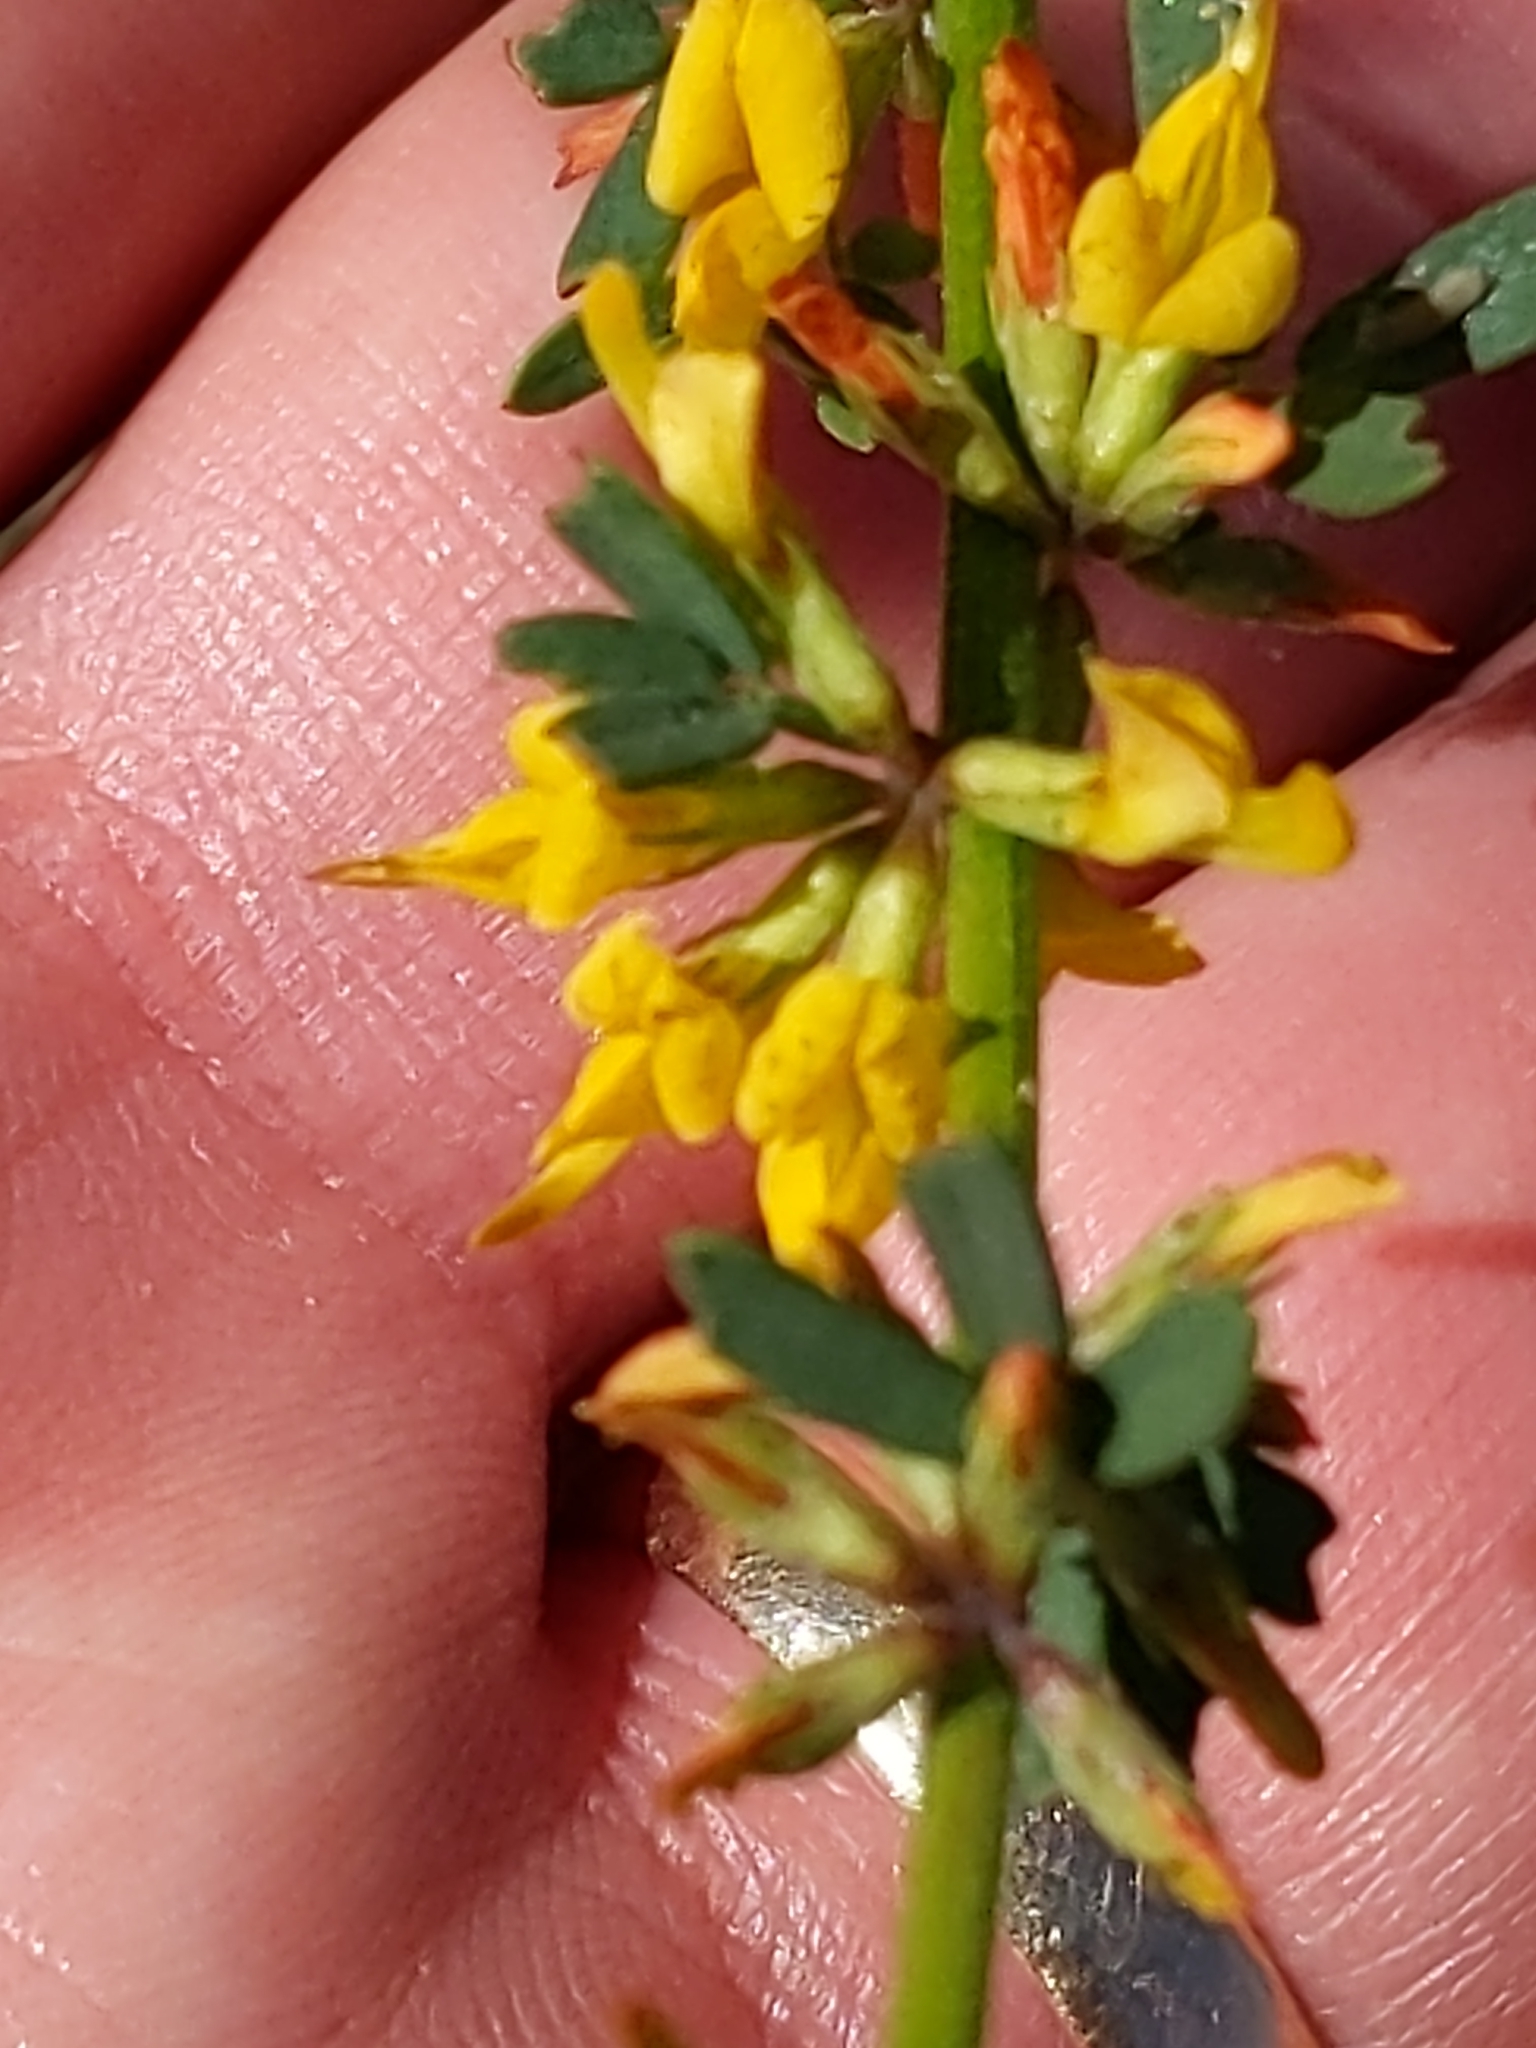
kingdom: Plantae
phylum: Tracheophyta
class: Magnoliopsida
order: Fabales
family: Fabaceae
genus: Acmispon
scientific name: Acmispon glaber
